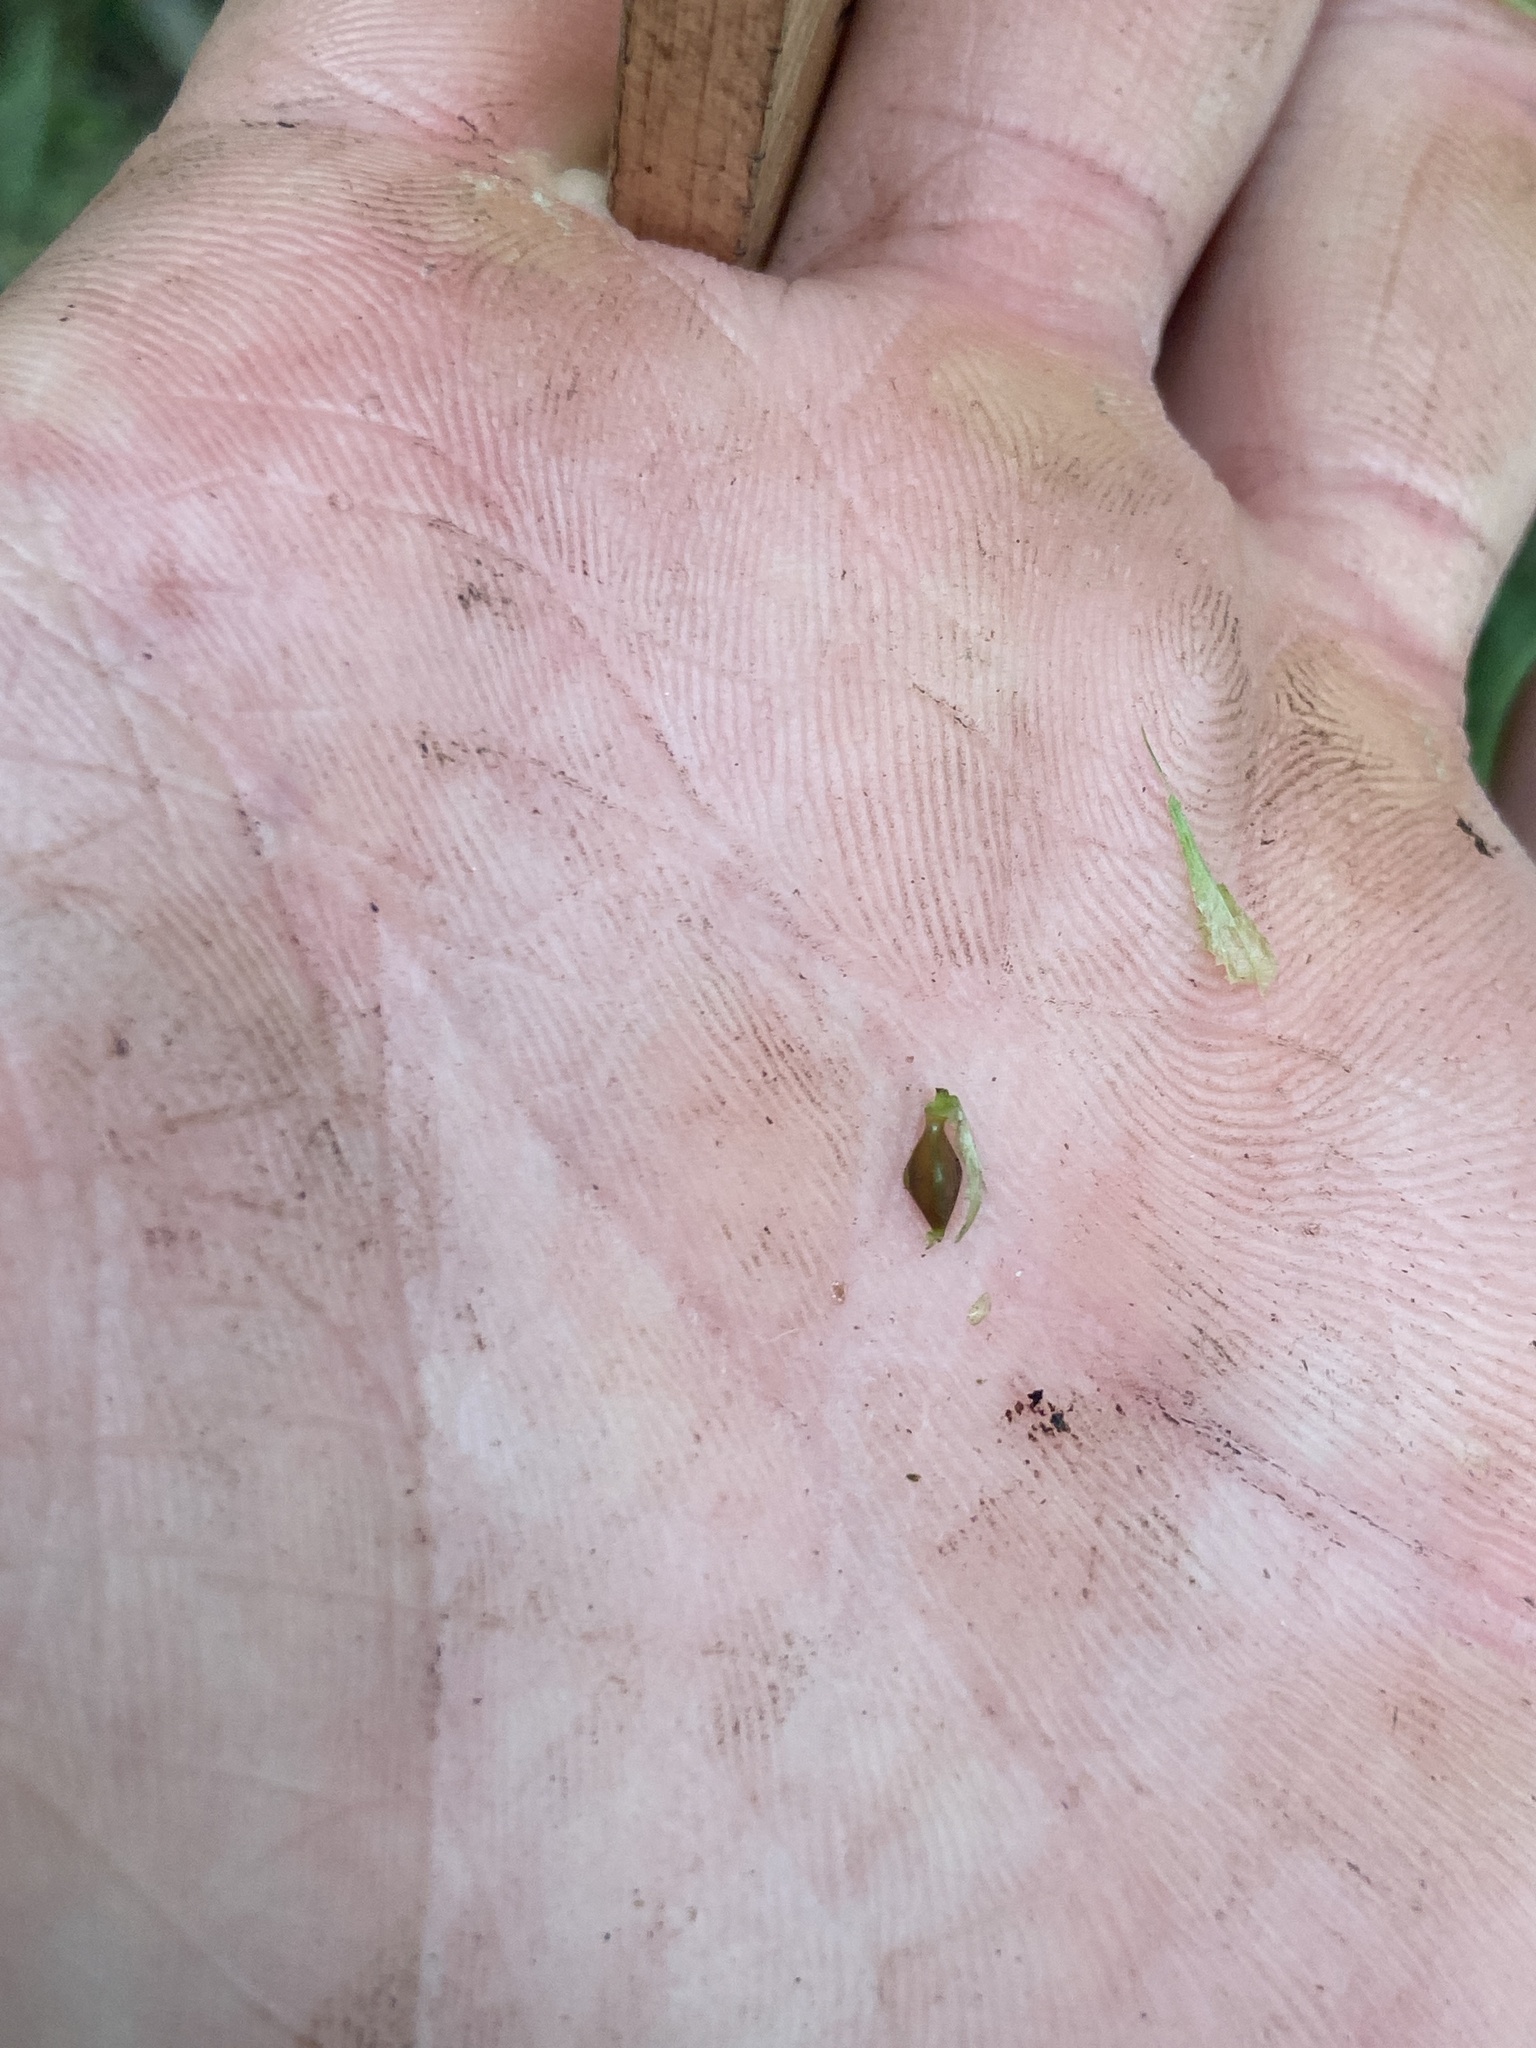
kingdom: Plantae
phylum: Tracheophyta
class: Liliopsida
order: Poales
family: Cyperaceae
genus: Carex
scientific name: Carex lupulina
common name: Hop sedge
